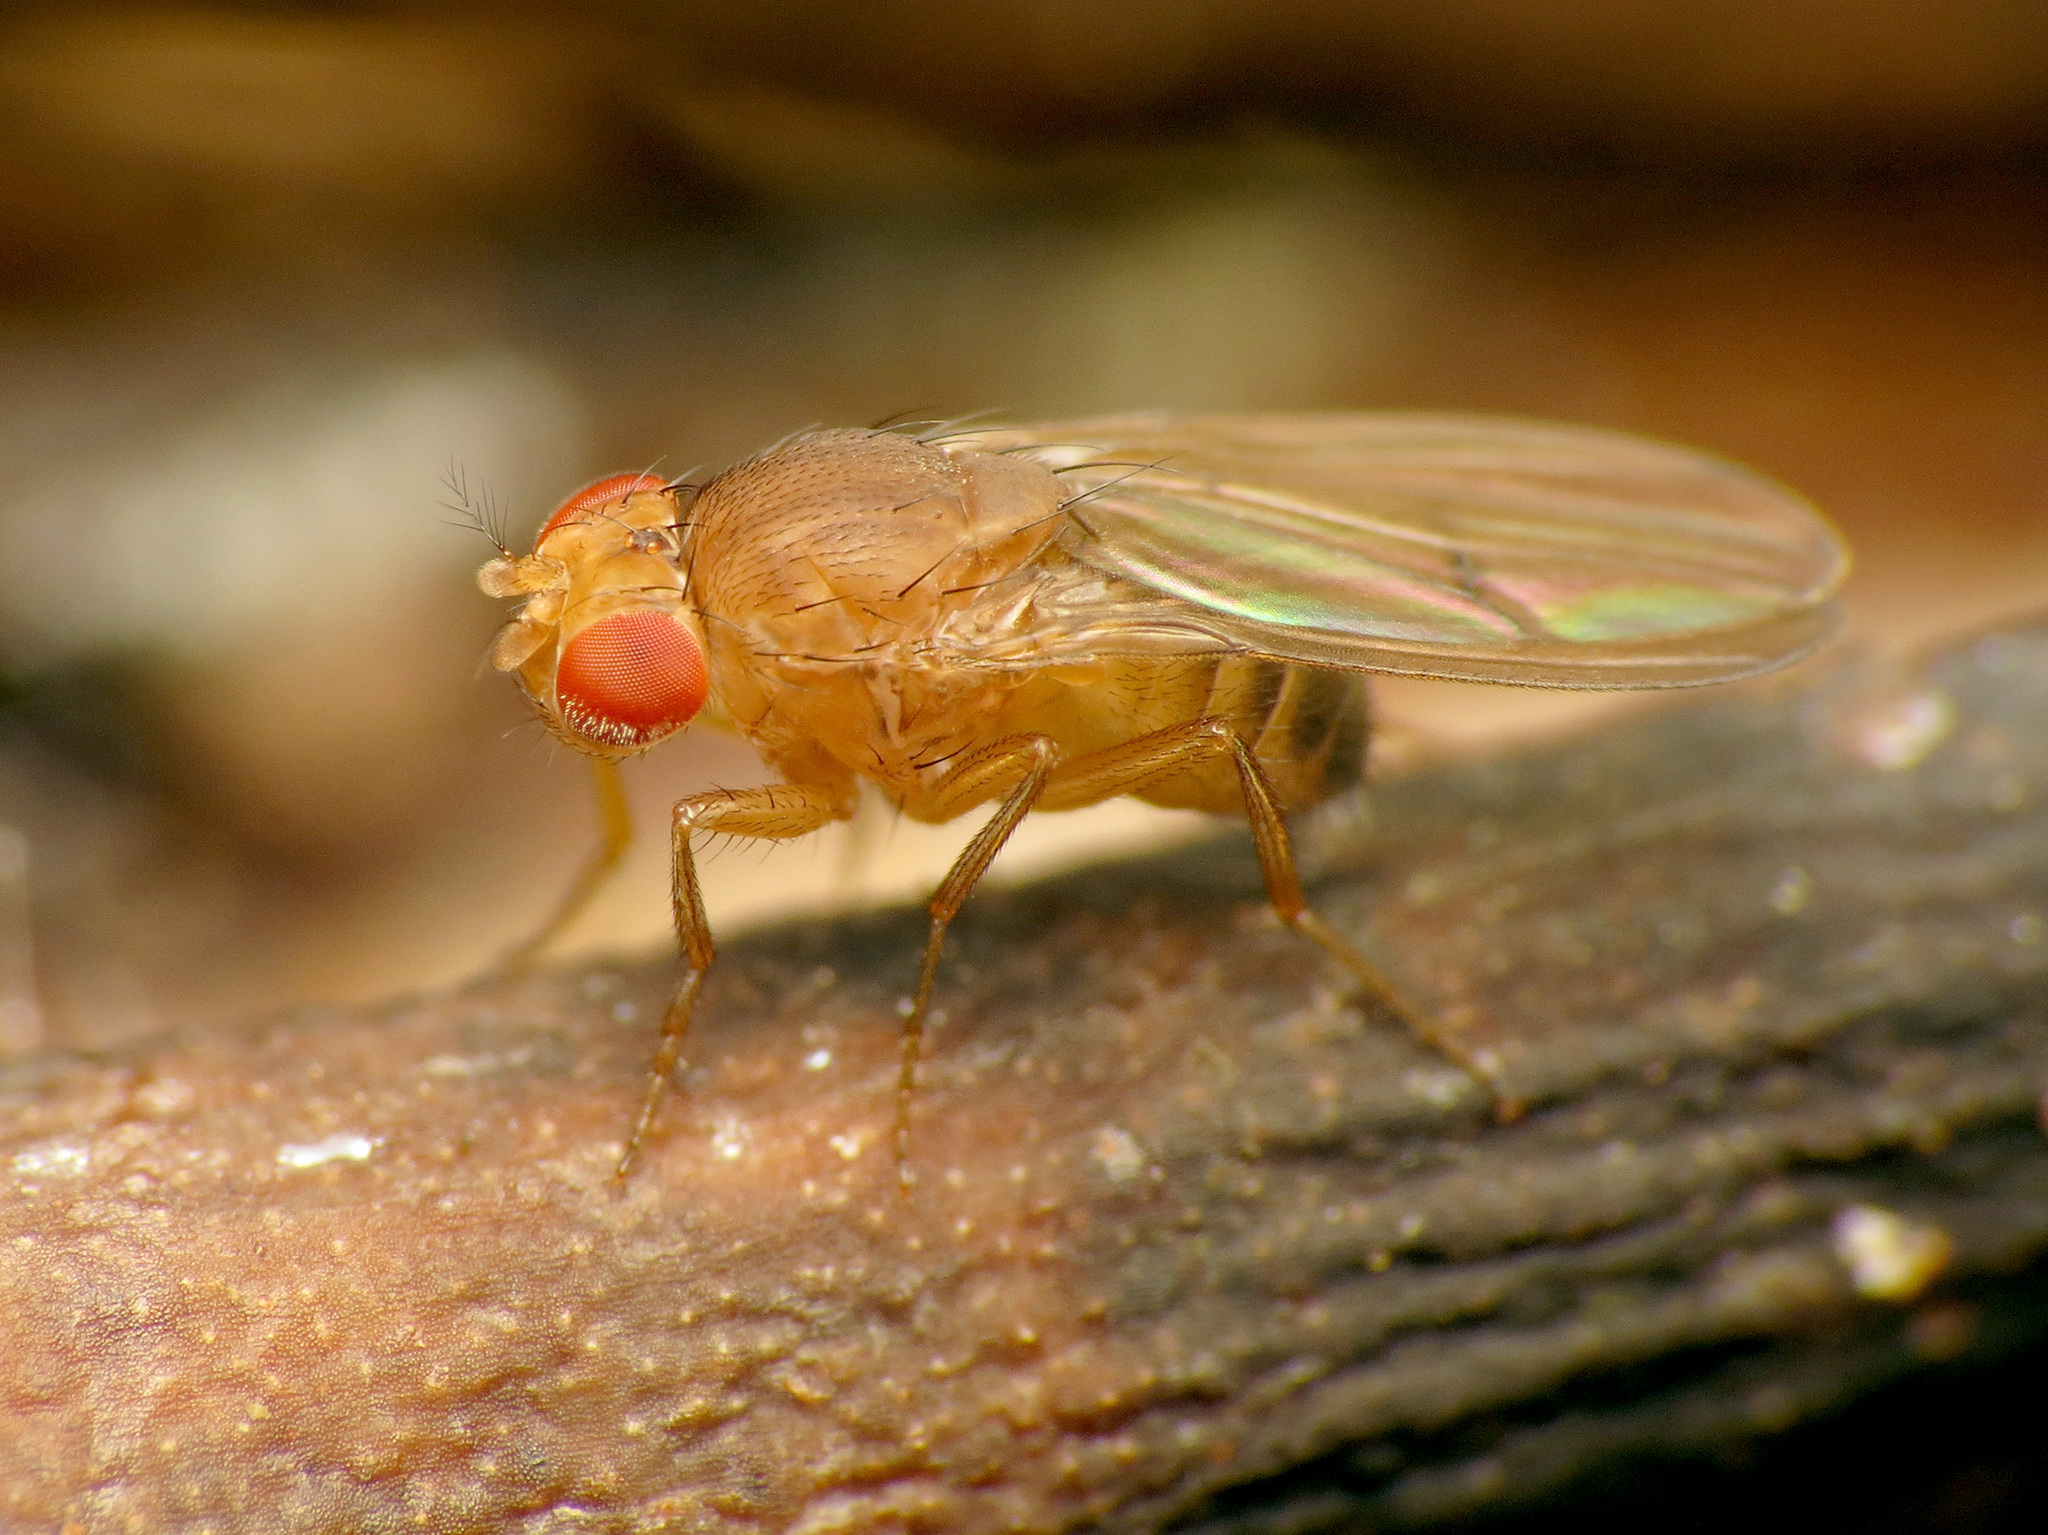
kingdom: Animalia
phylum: Arthropoda
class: Insecta
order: Diptera
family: Drosophilidae
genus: Drosophila
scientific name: Drosophila
